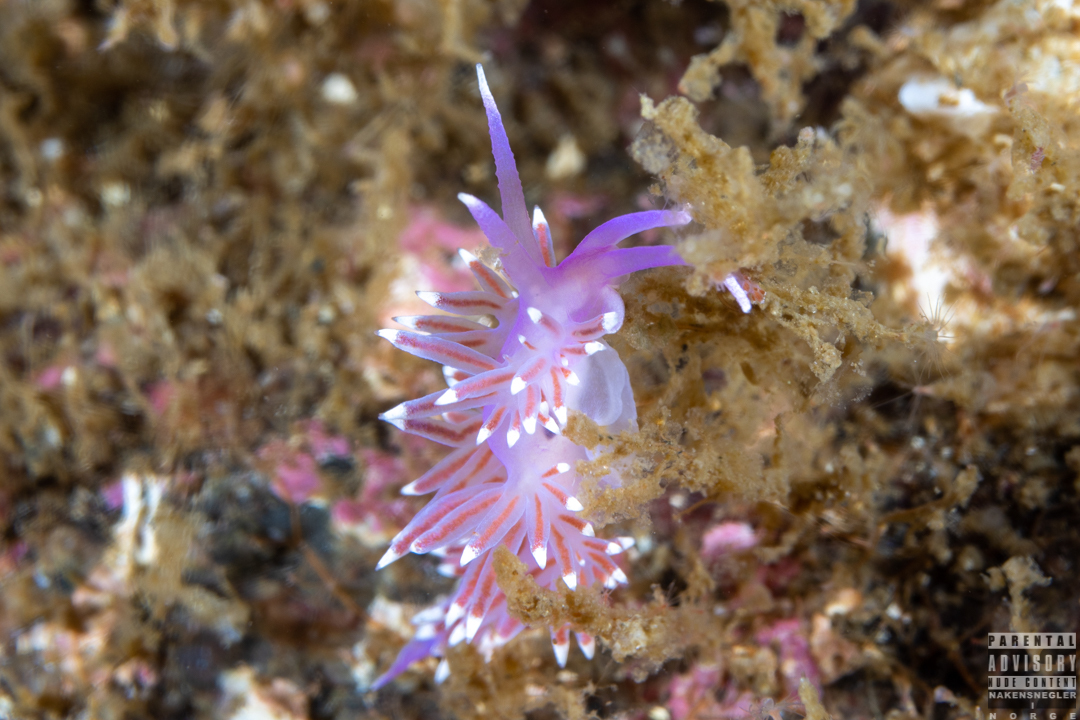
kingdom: Animalia
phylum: Mollusca
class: Gastropoda
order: Nudibranchia
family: Flabellinidae
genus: Edmundsella
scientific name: Edmundsella pedata
